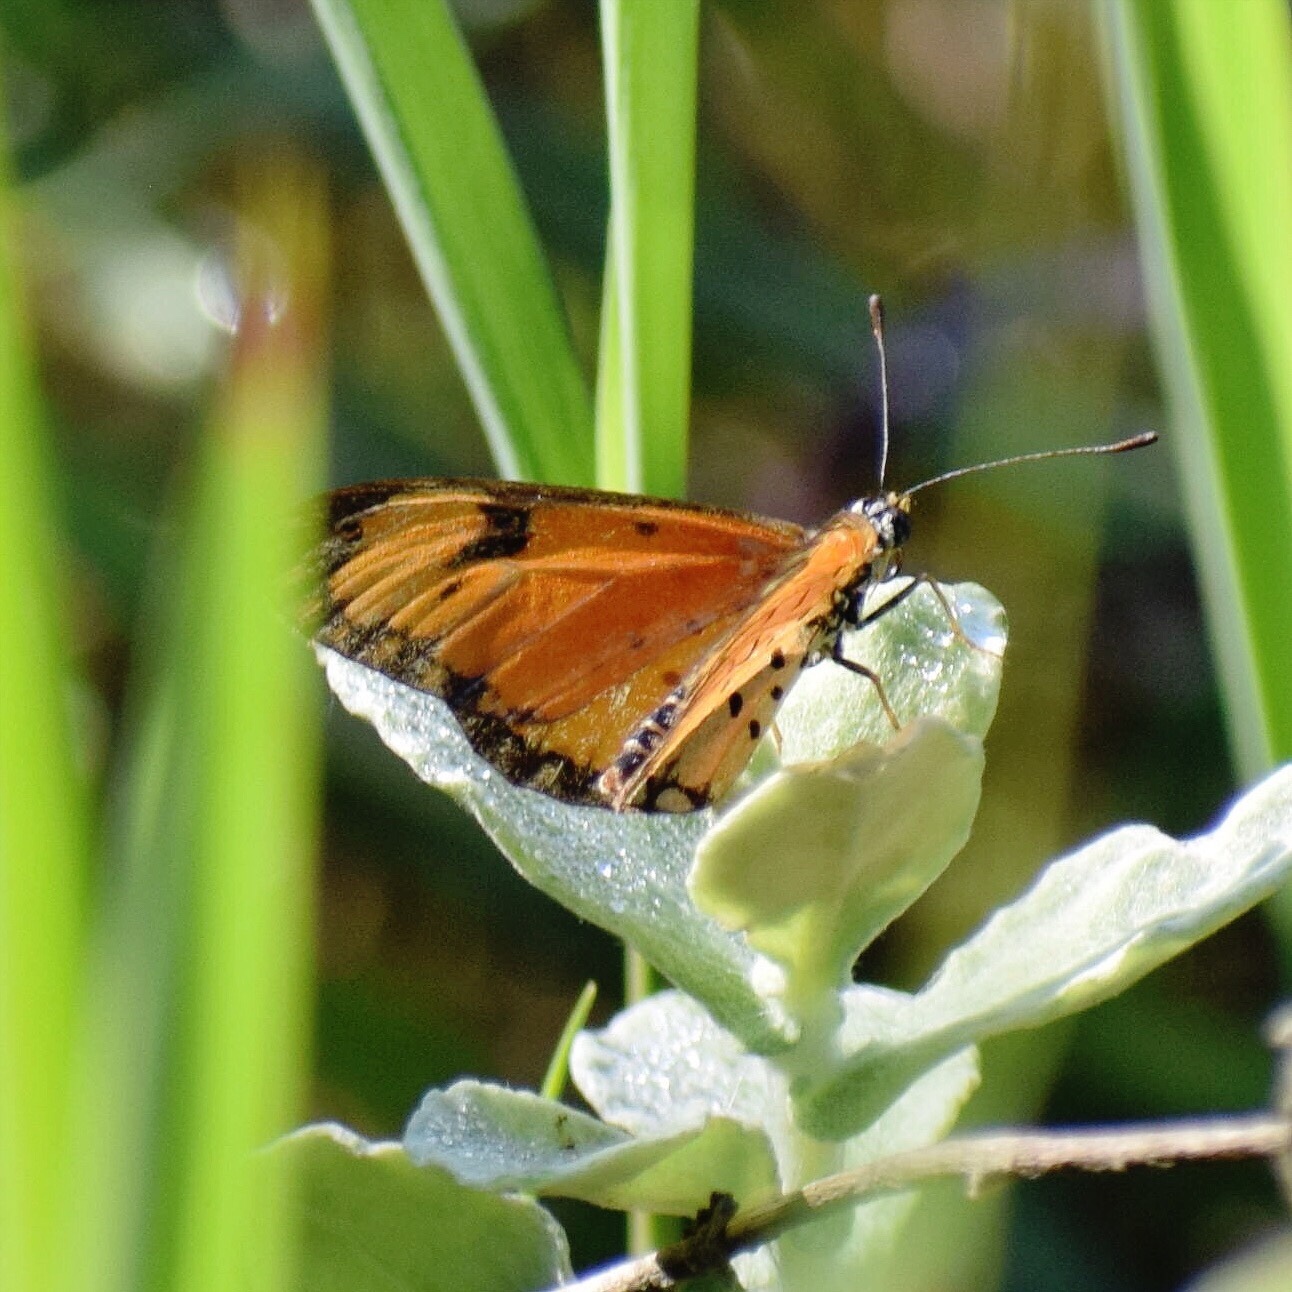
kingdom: Animalia
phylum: Arthropoda
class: Insecta
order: Lepidoptera
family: Nymphalidae
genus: Acraea
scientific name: Acraea Telchinia serena
